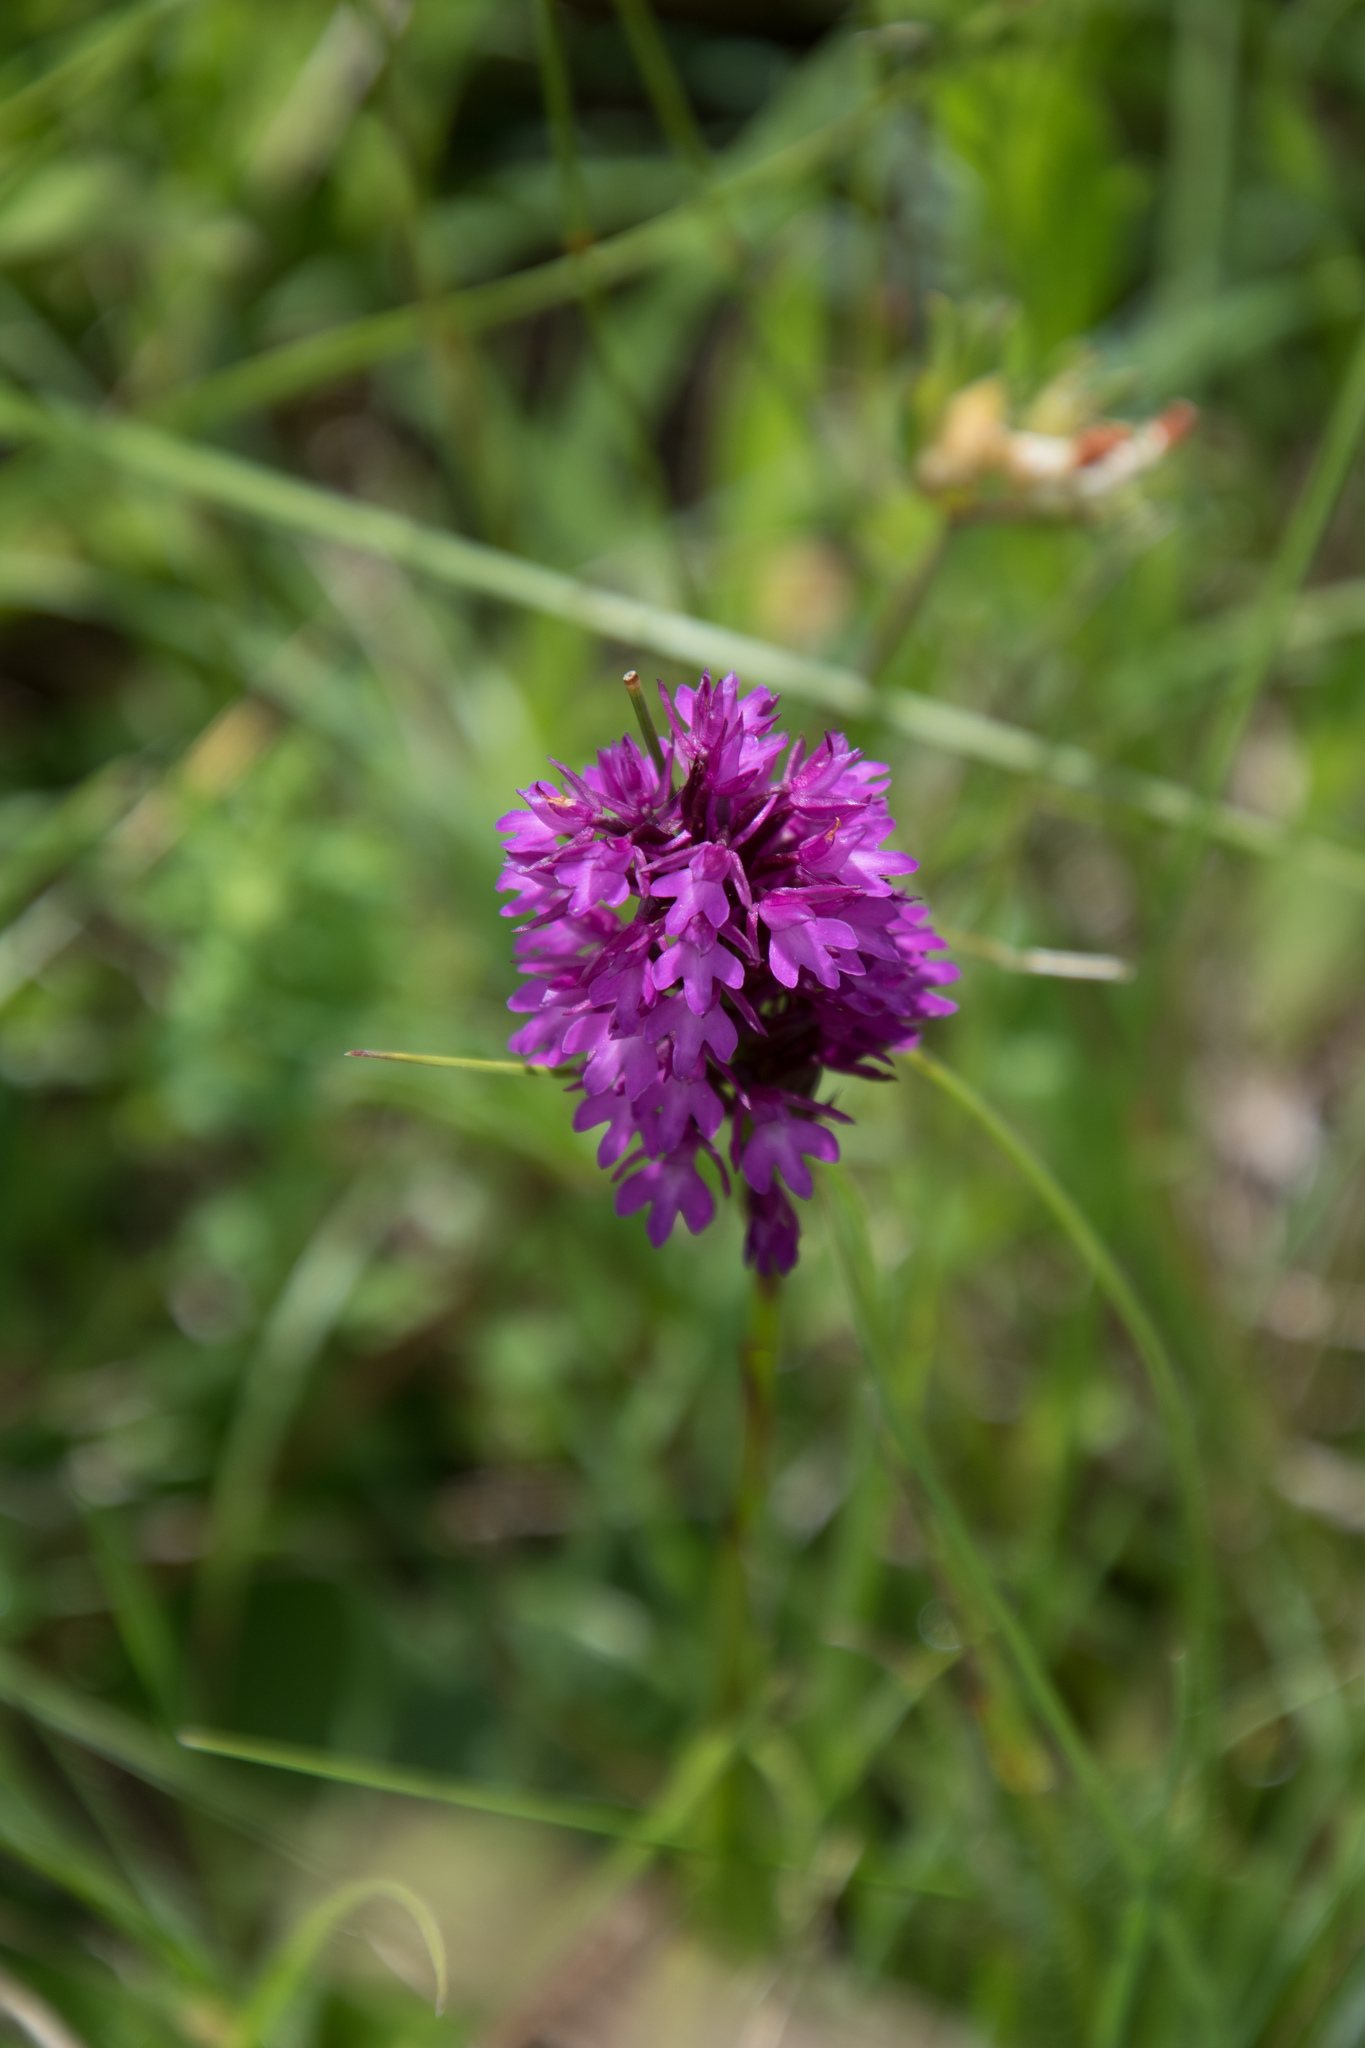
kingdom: Plantae
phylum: Tracheophyta
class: Liliopsida
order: Asparagales
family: Orchidaceae
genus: Anacamptis
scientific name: Anacamptis pyramidalis
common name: Pyramidal orchid
